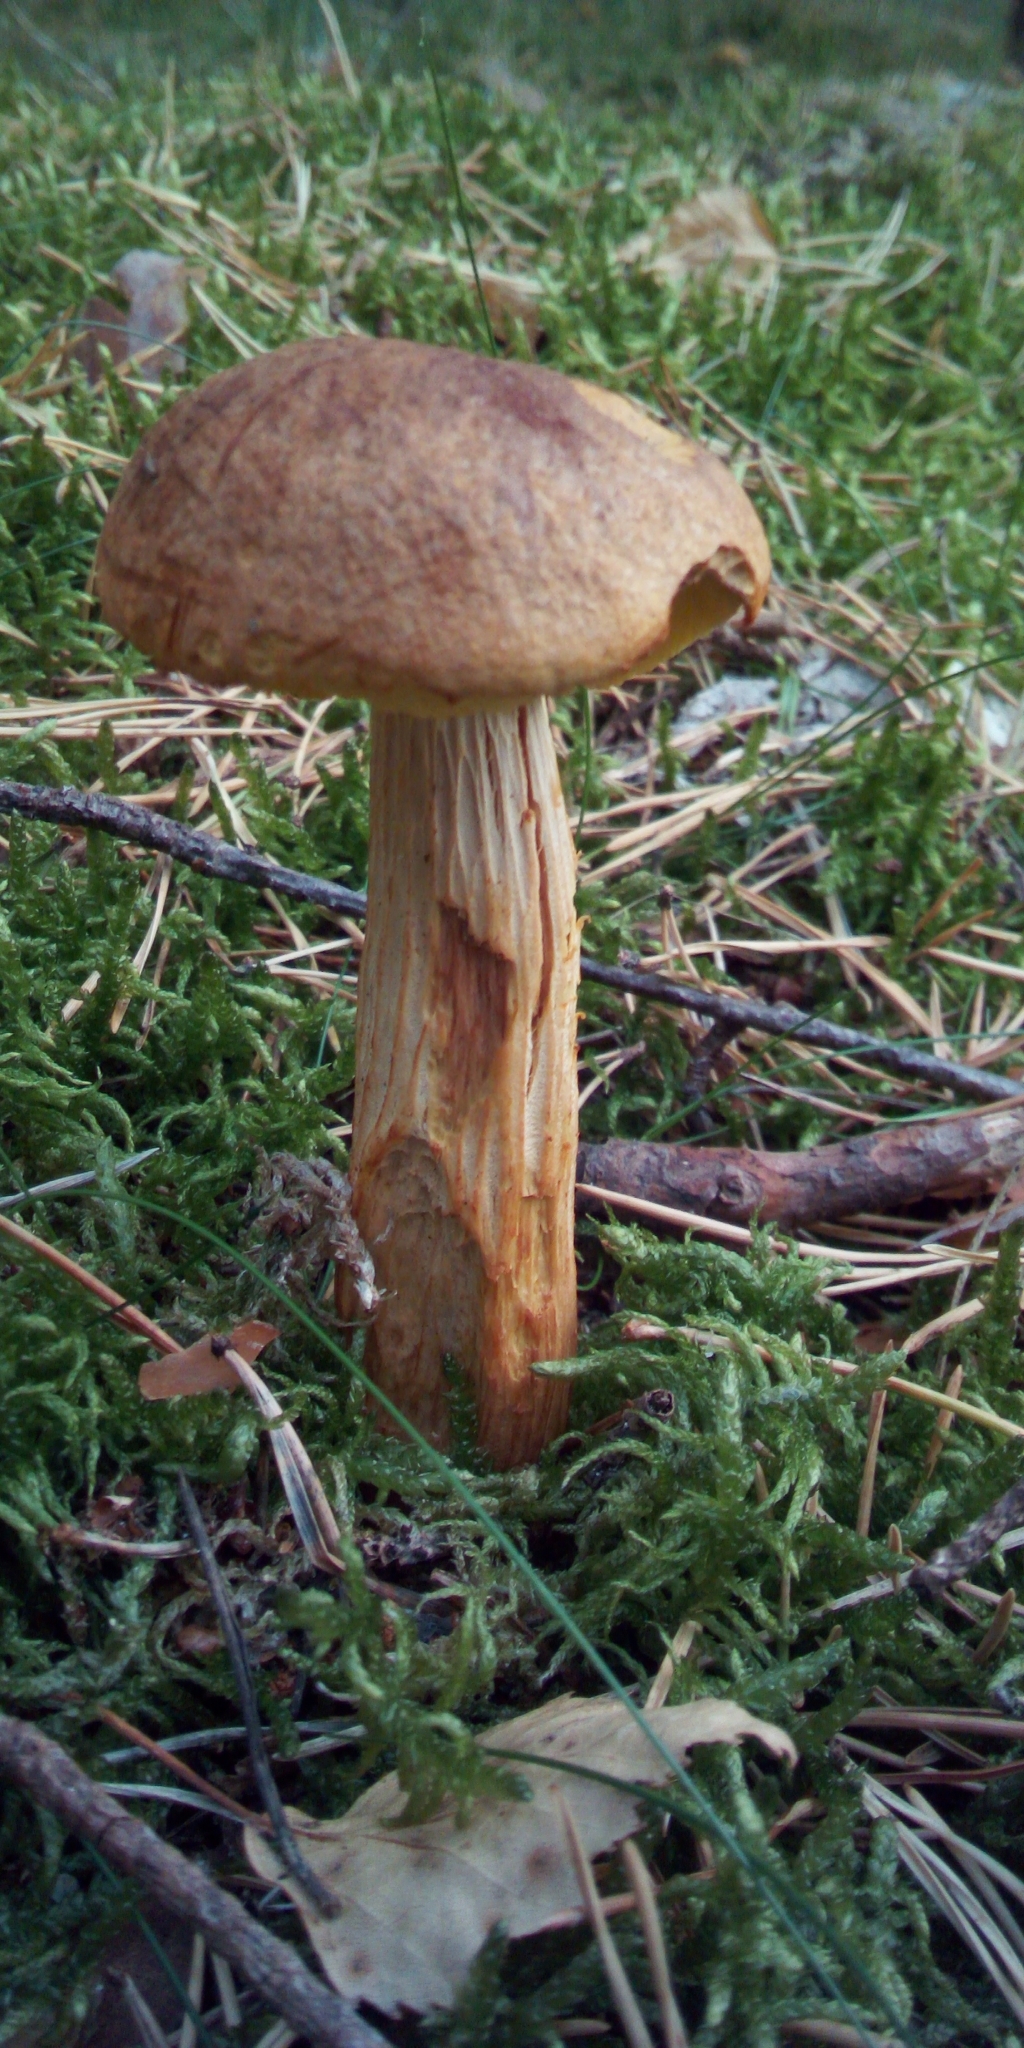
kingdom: Fungi
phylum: Basidiomycota
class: Agaricomycetes
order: Boletales
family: Boletaceae
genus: Aureoboletus
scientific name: Aureoboletus projectellus
